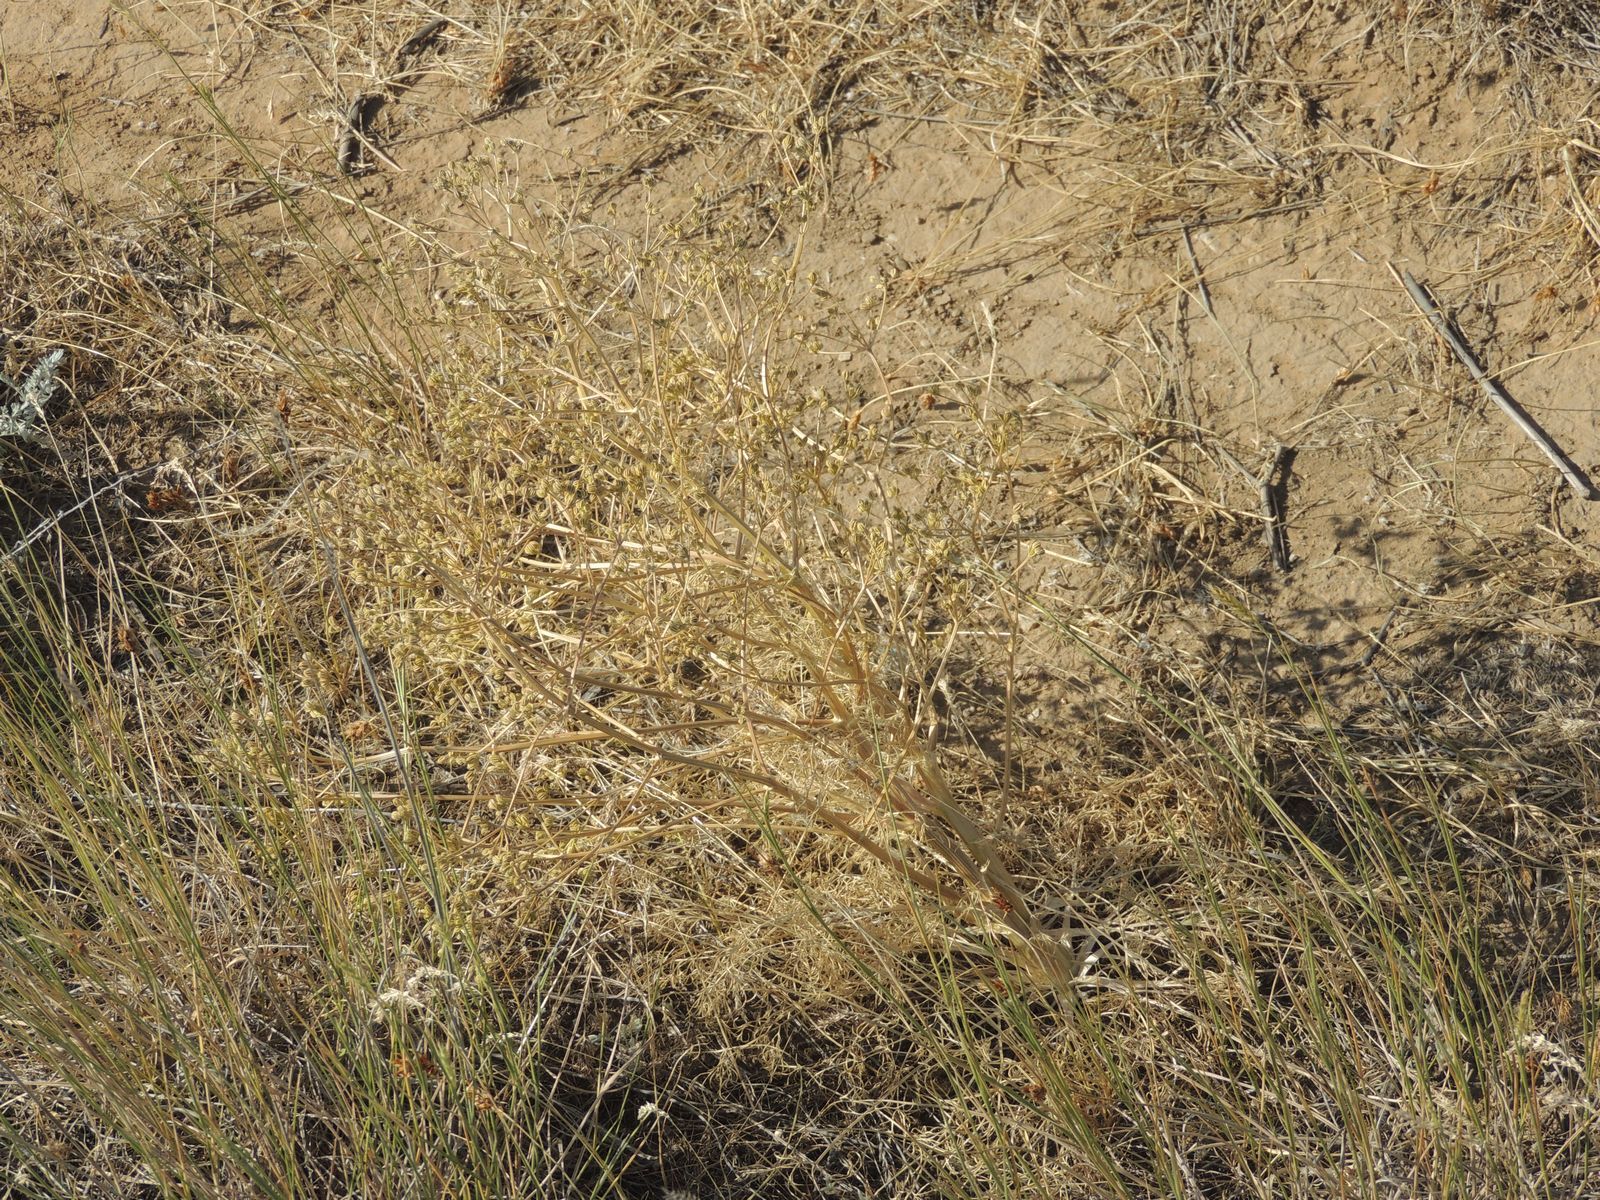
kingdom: Plantae
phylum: Tracheophyta
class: Magnoliopsida
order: Apiales
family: Apiaceae
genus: Trinia
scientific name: Trinia hispida
